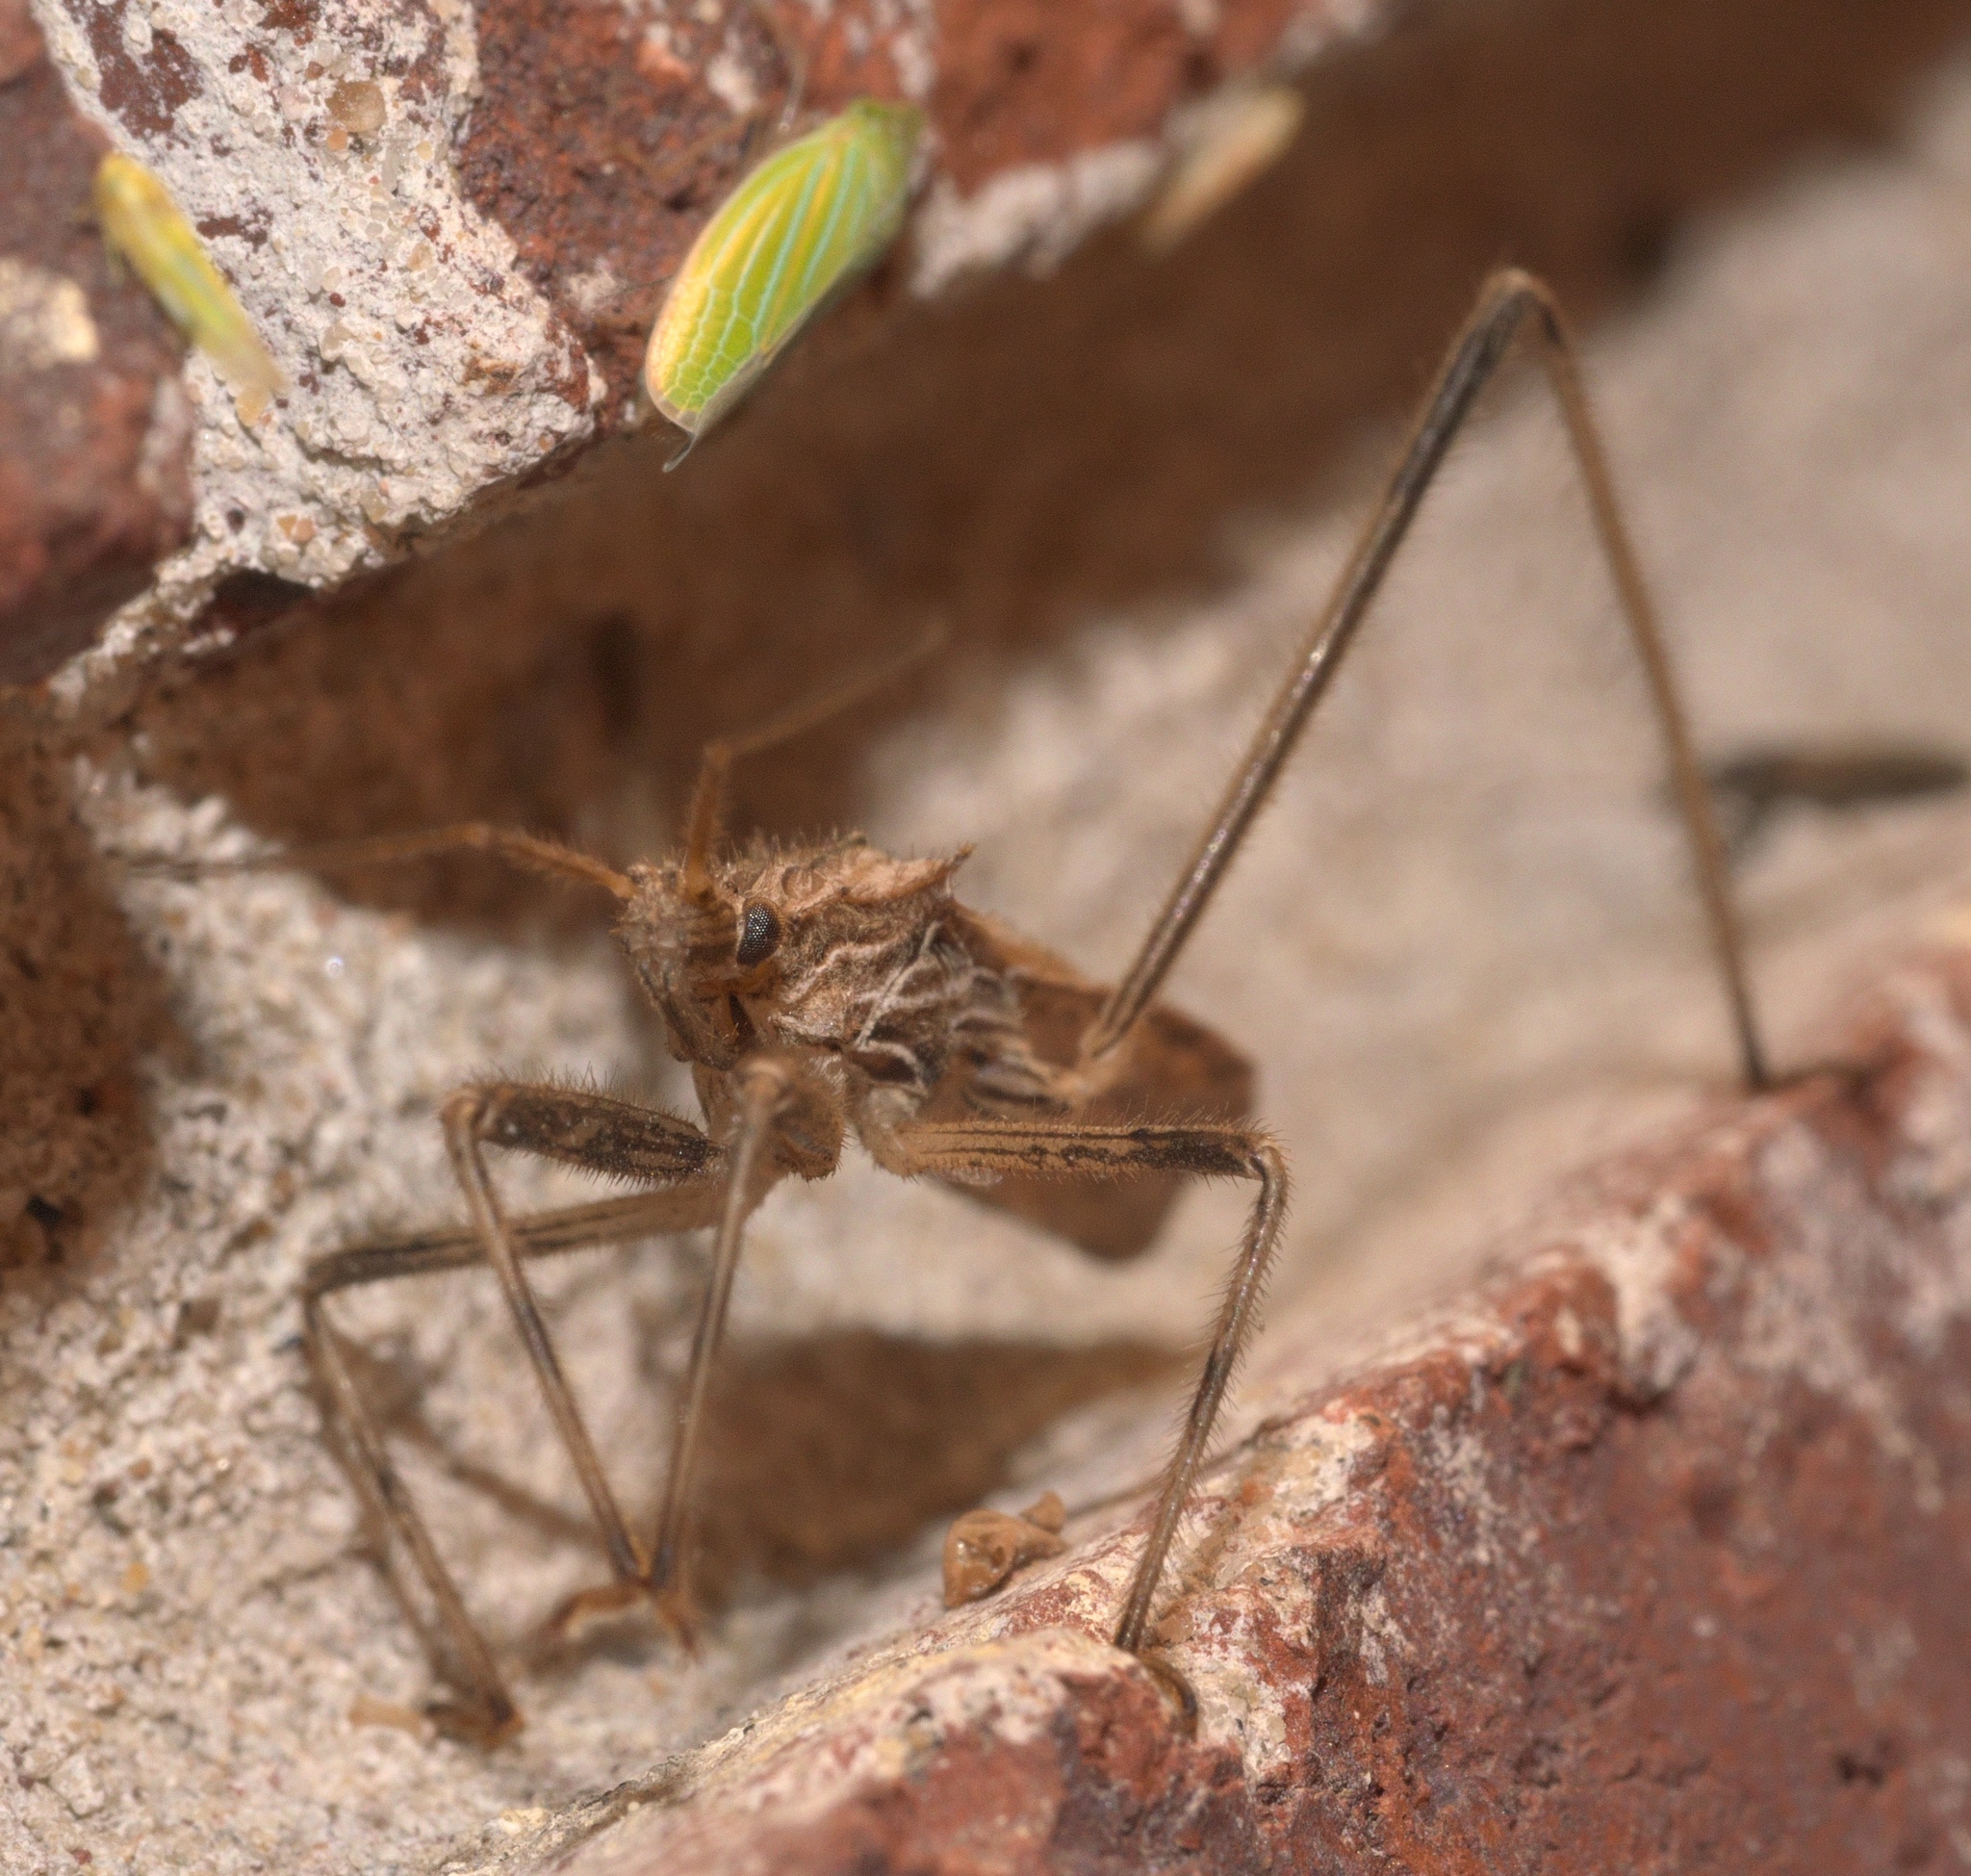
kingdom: Animalia
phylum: Arthropoda
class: Insecta
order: Hemiptera
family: Reduviidae
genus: Stenopoda
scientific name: Stenopoda spinulosa
